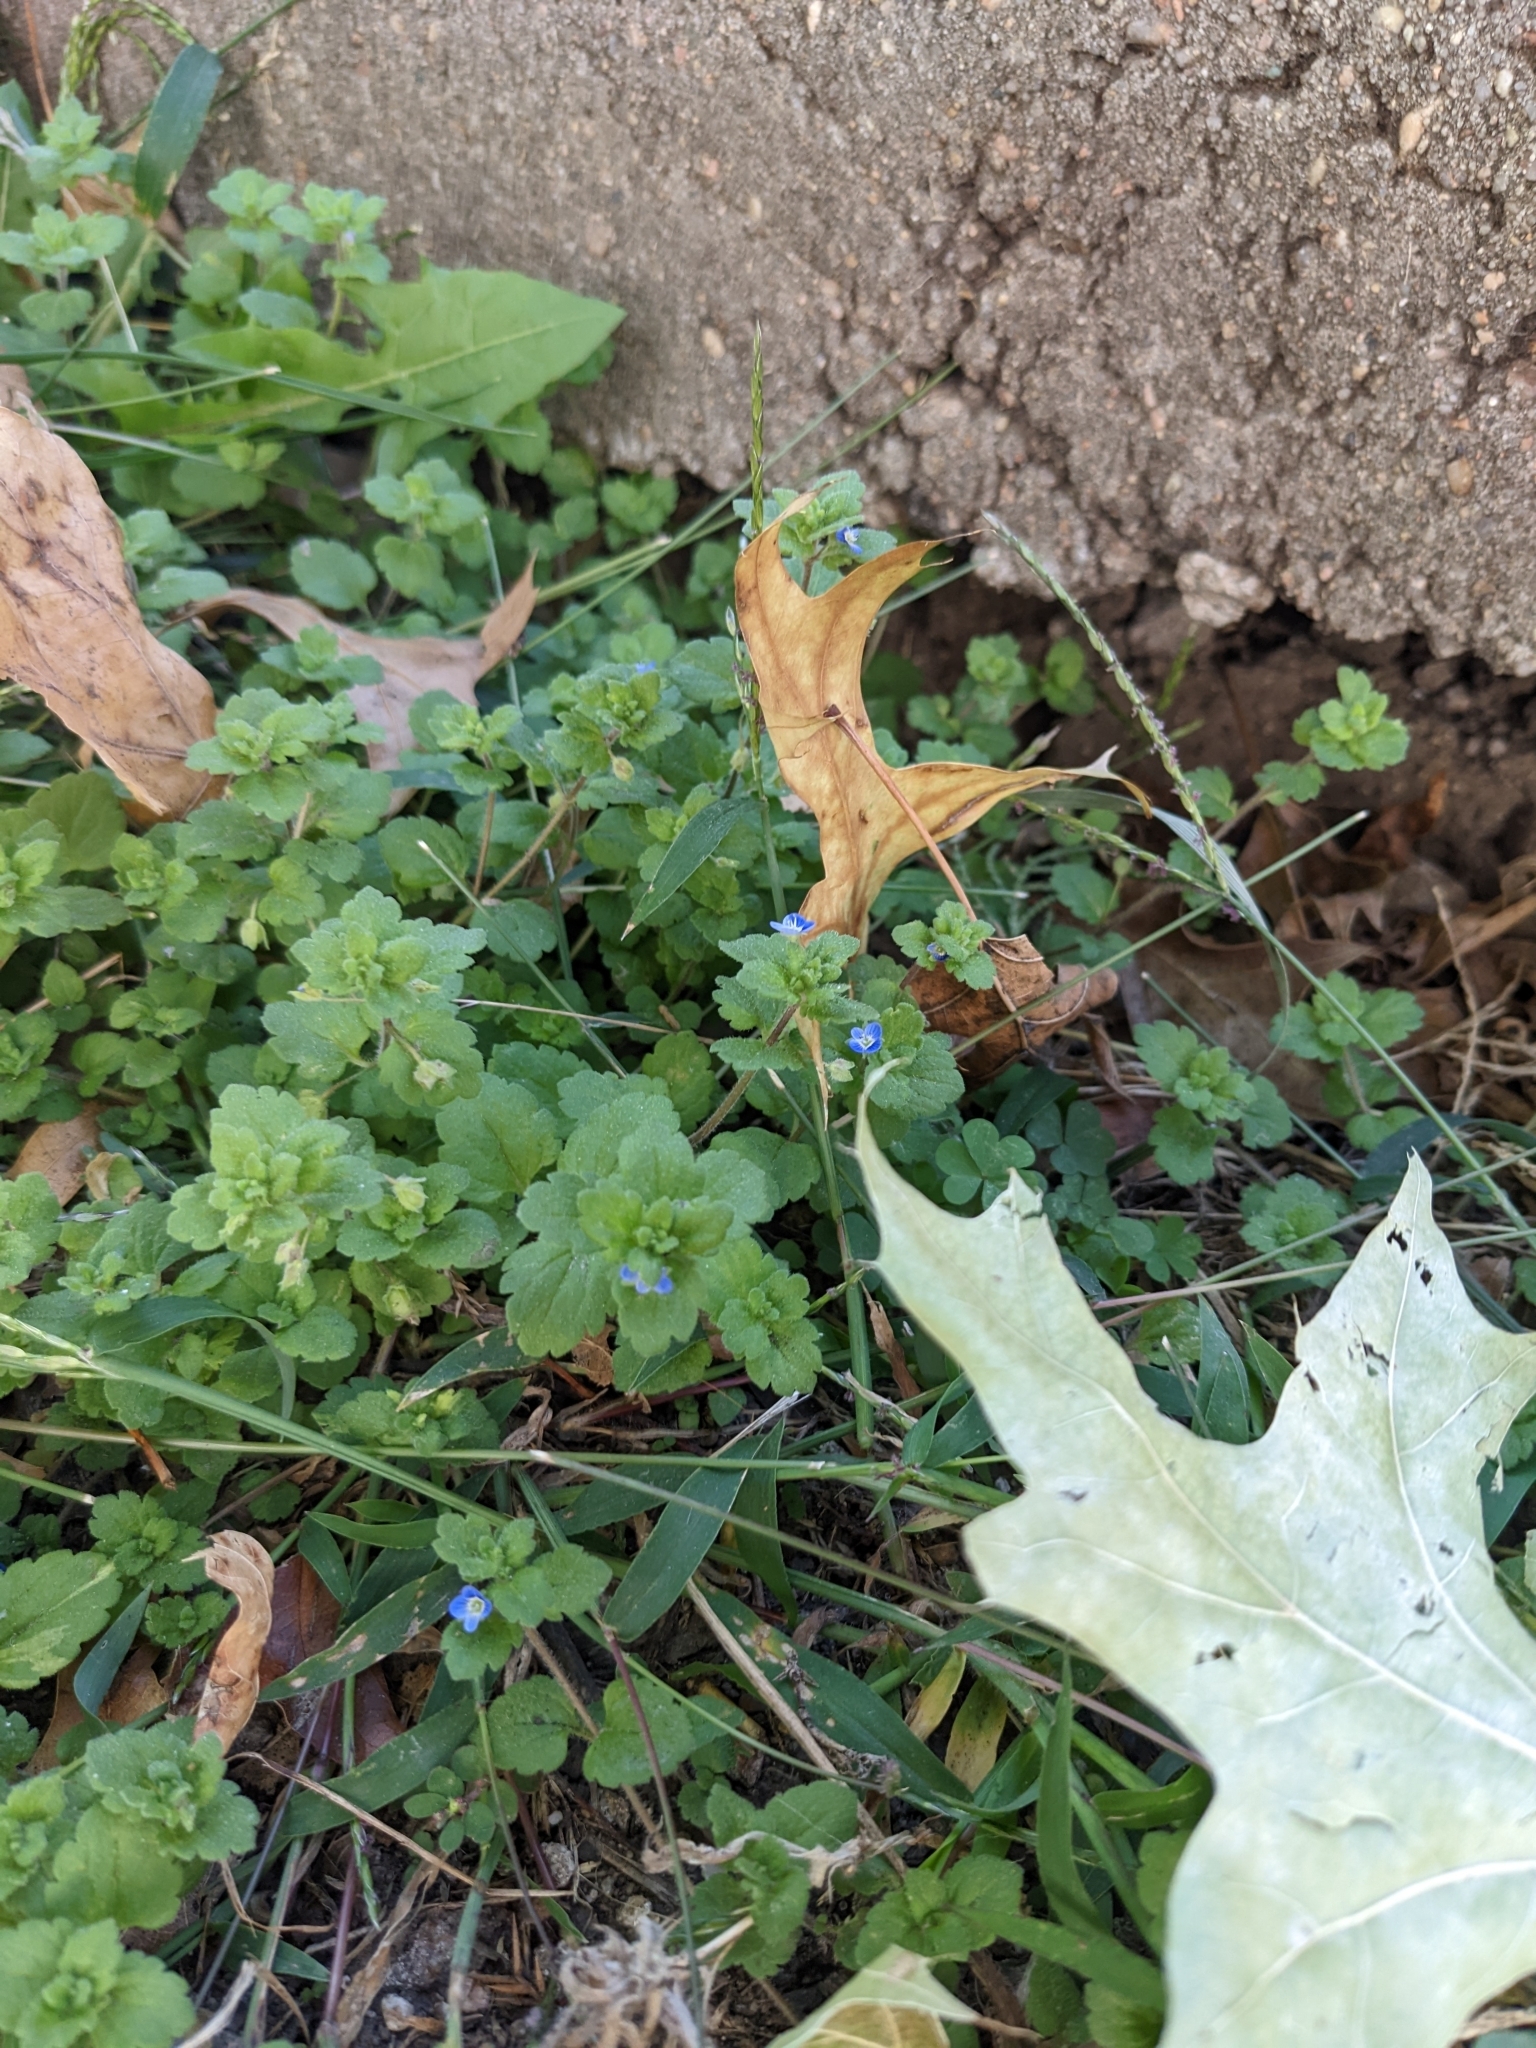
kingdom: Plantae
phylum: Tracheophyta
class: Magnoliopsida
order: Lamiales
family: Plantaginaceae
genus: Veronica
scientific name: Veronica polita
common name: Grey field-speedwell
